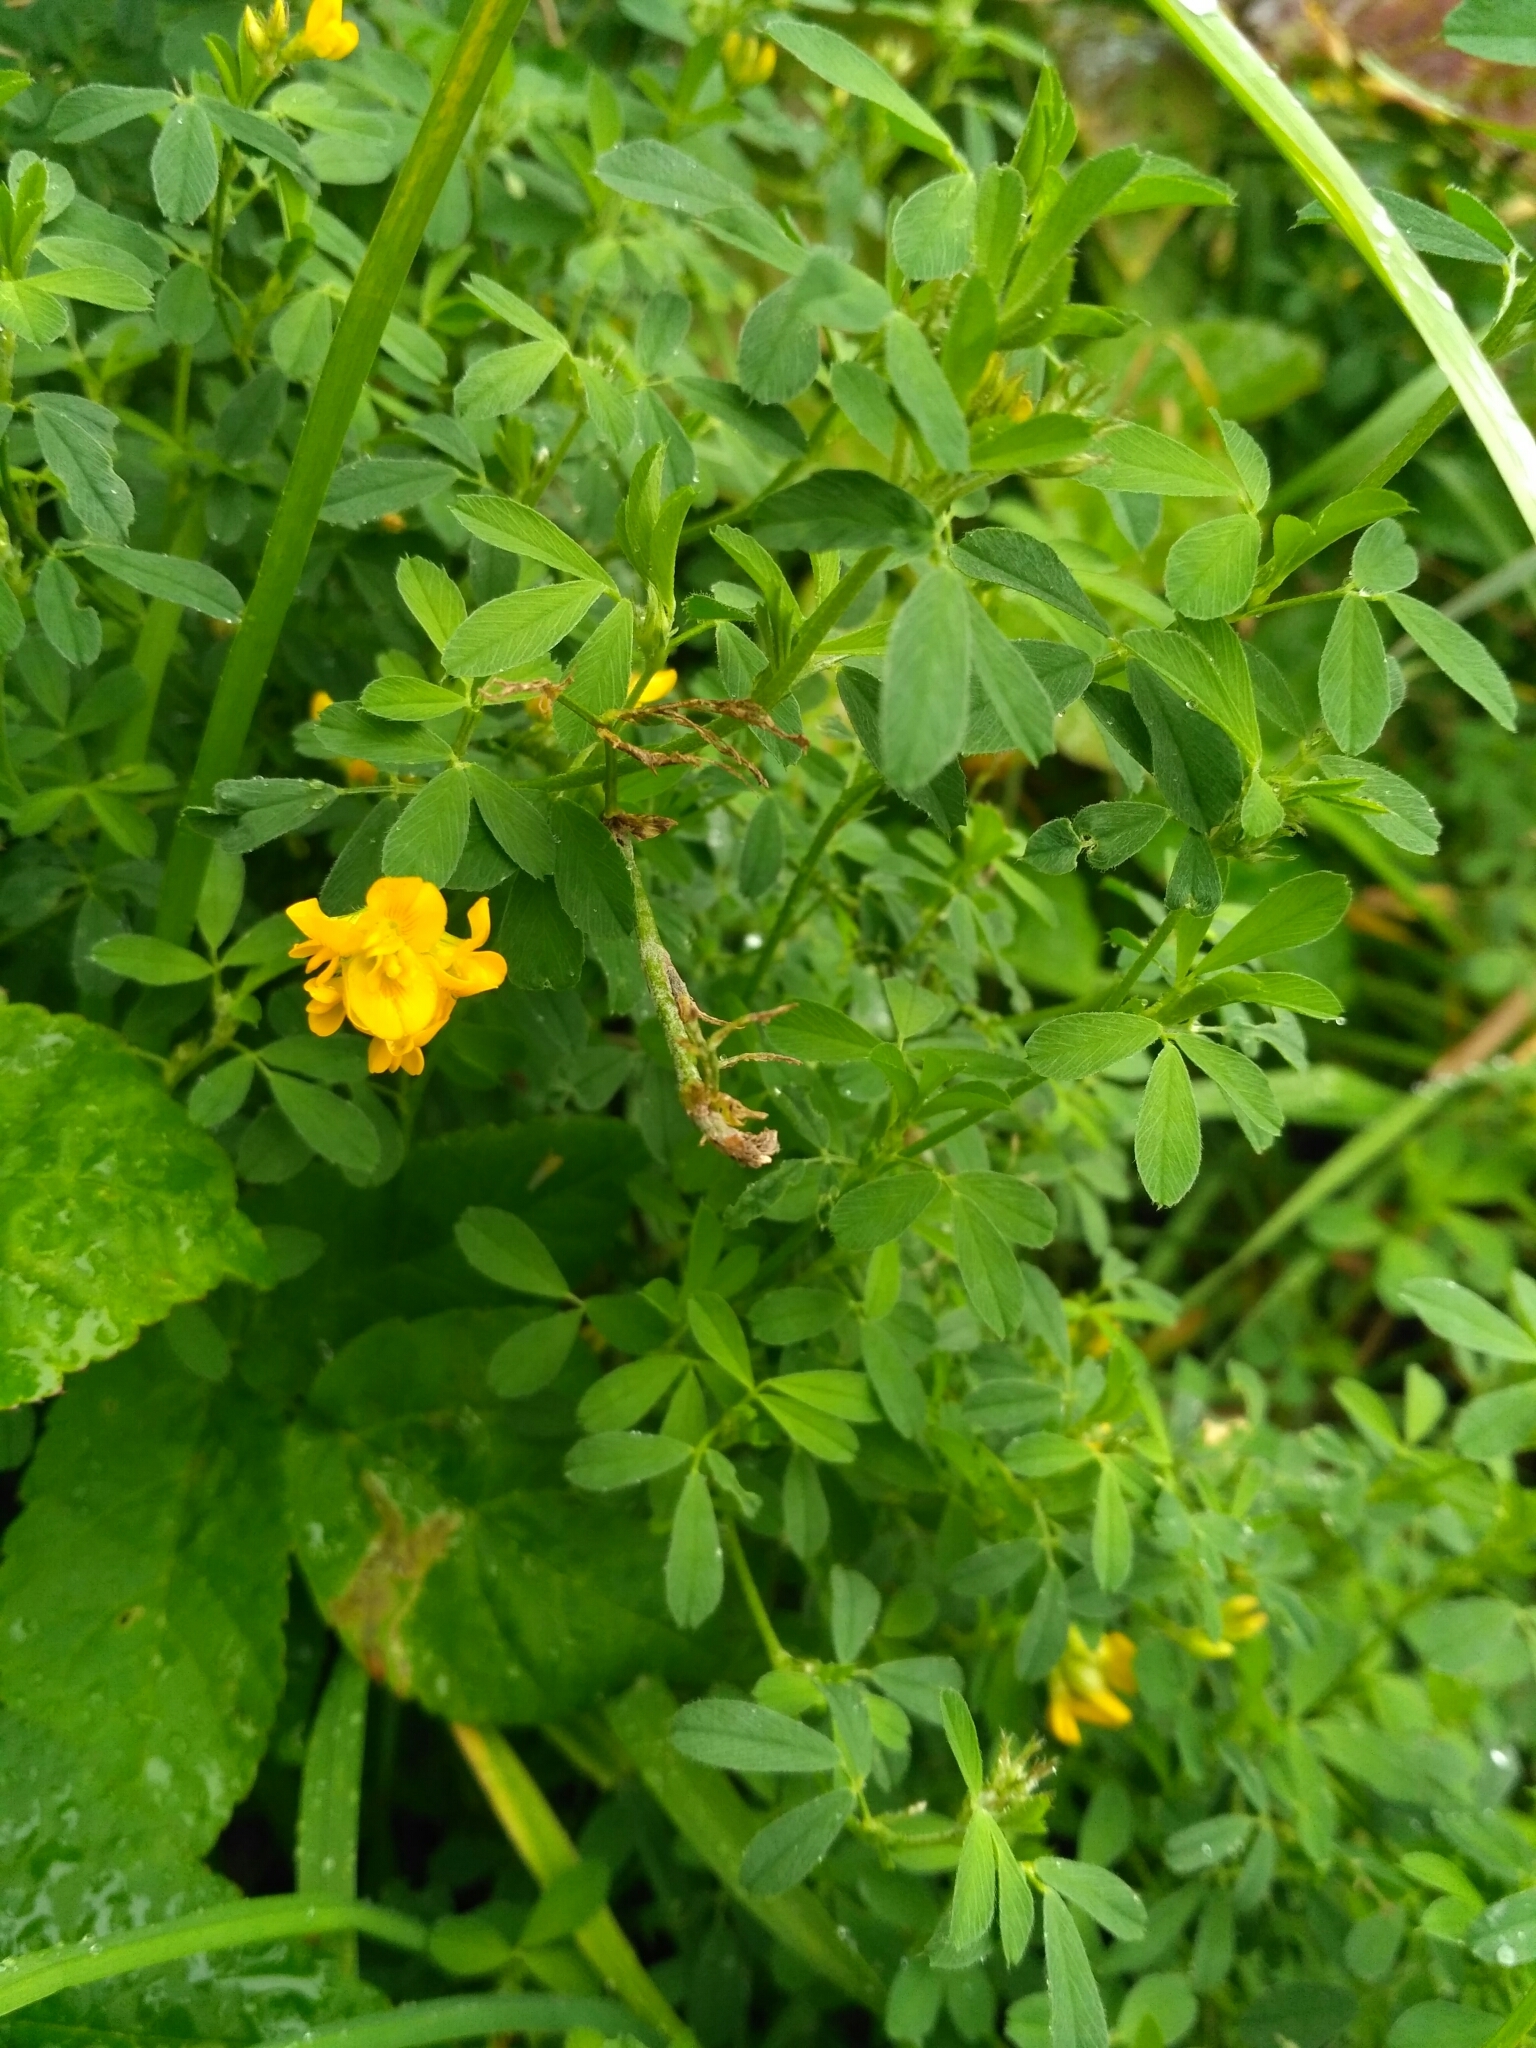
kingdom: Plantae
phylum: Tracheophyta
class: Magnoliopsida
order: Fabales
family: Fabaceae
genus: Medicago
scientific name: Medicago falcata
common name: Sickle medick
